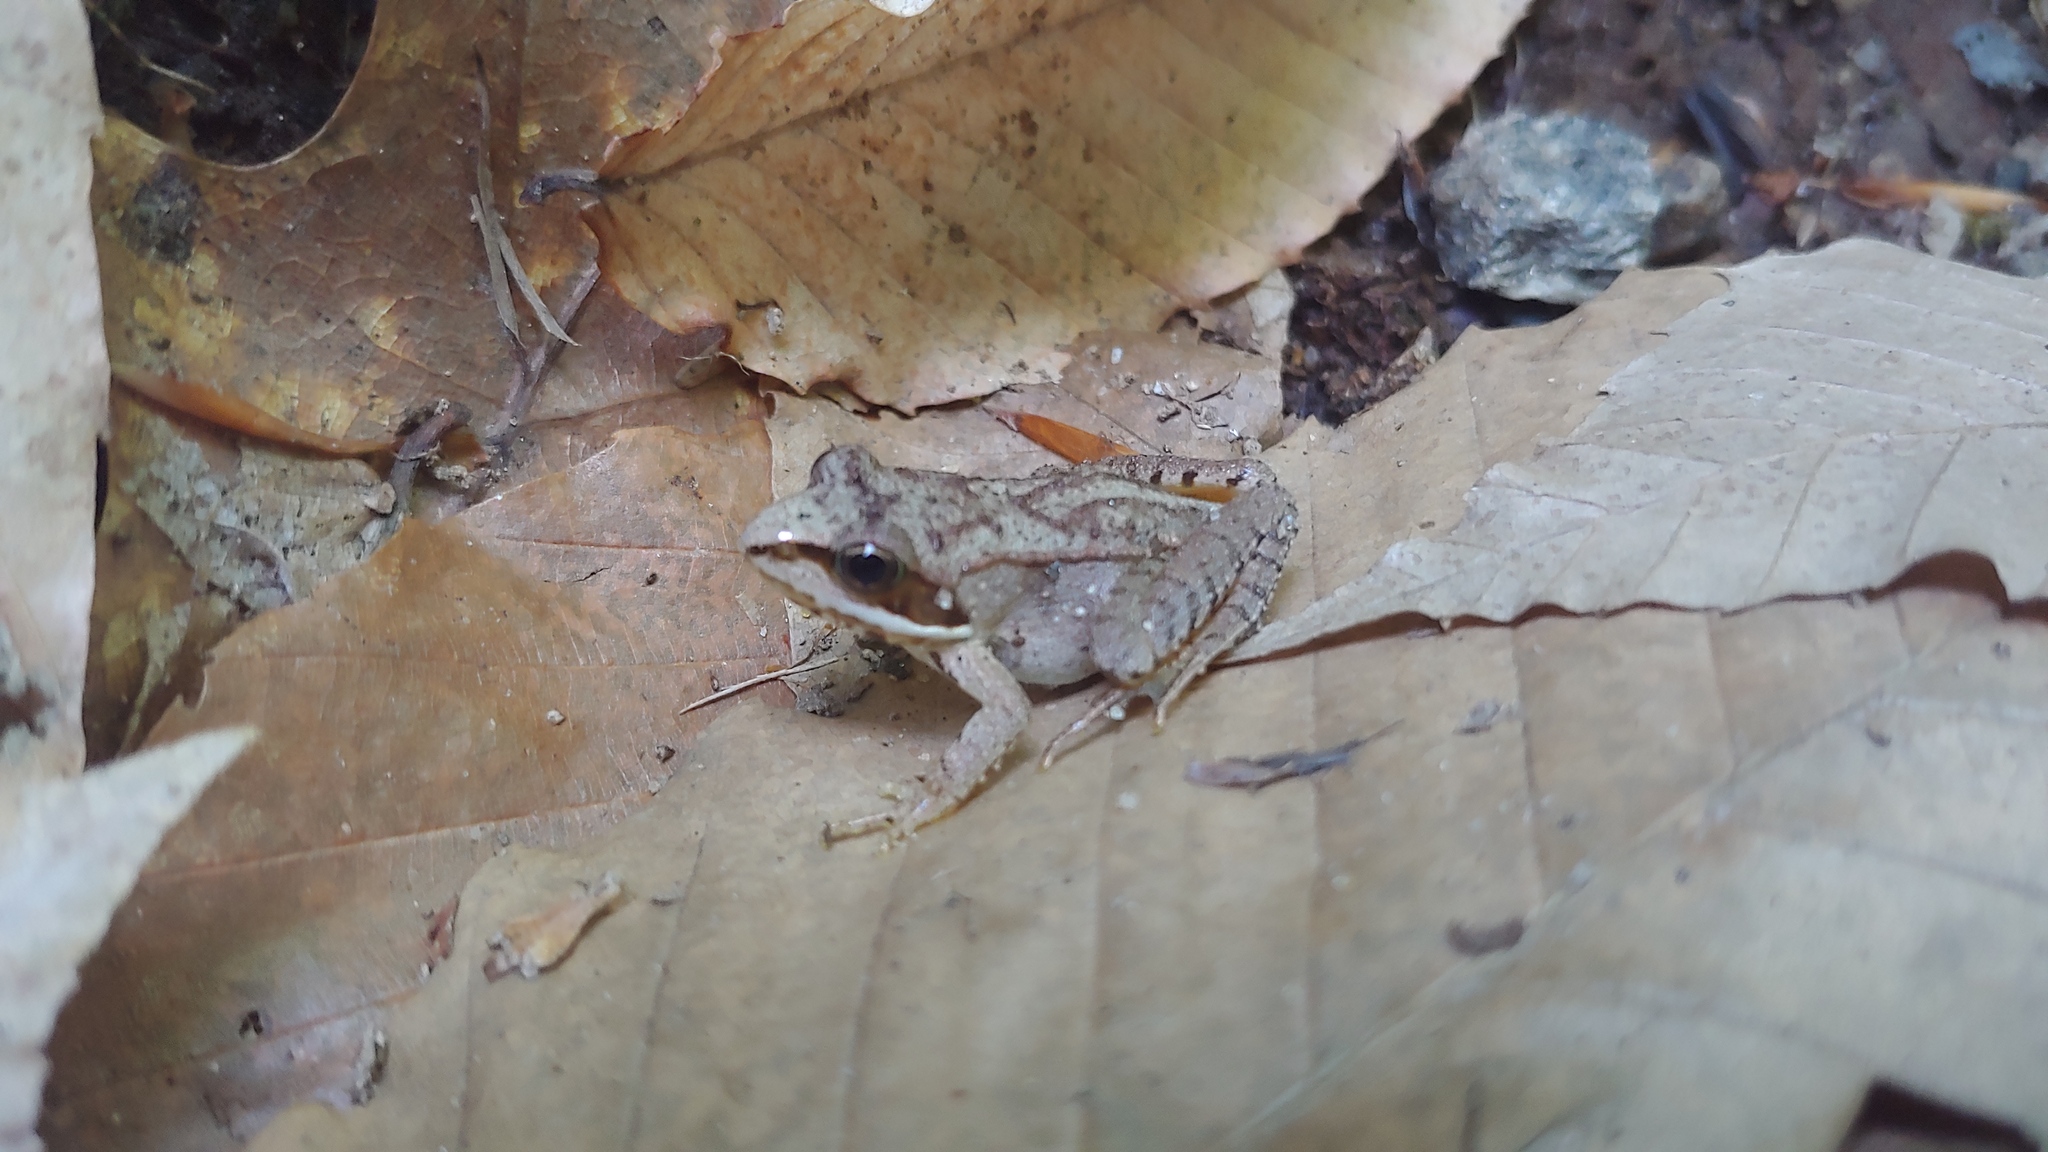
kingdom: Animalia
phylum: Chordata
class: Amphibia
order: Anura
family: Ranidae
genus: Lithobates
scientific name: Lithobates sylvaticus
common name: Wood frog
